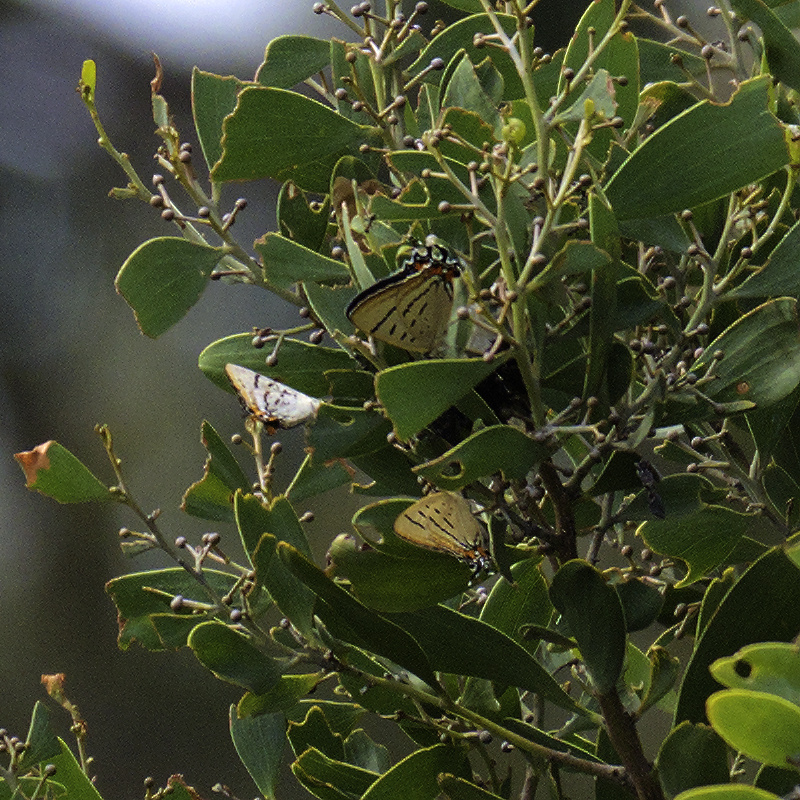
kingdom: Animalia
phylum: Arthropoda
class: Insecta
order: Lepidoptera
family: Lycaenidae
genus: Jalmenus
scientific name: Jalmenus evagoras
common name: Common imperial blue
